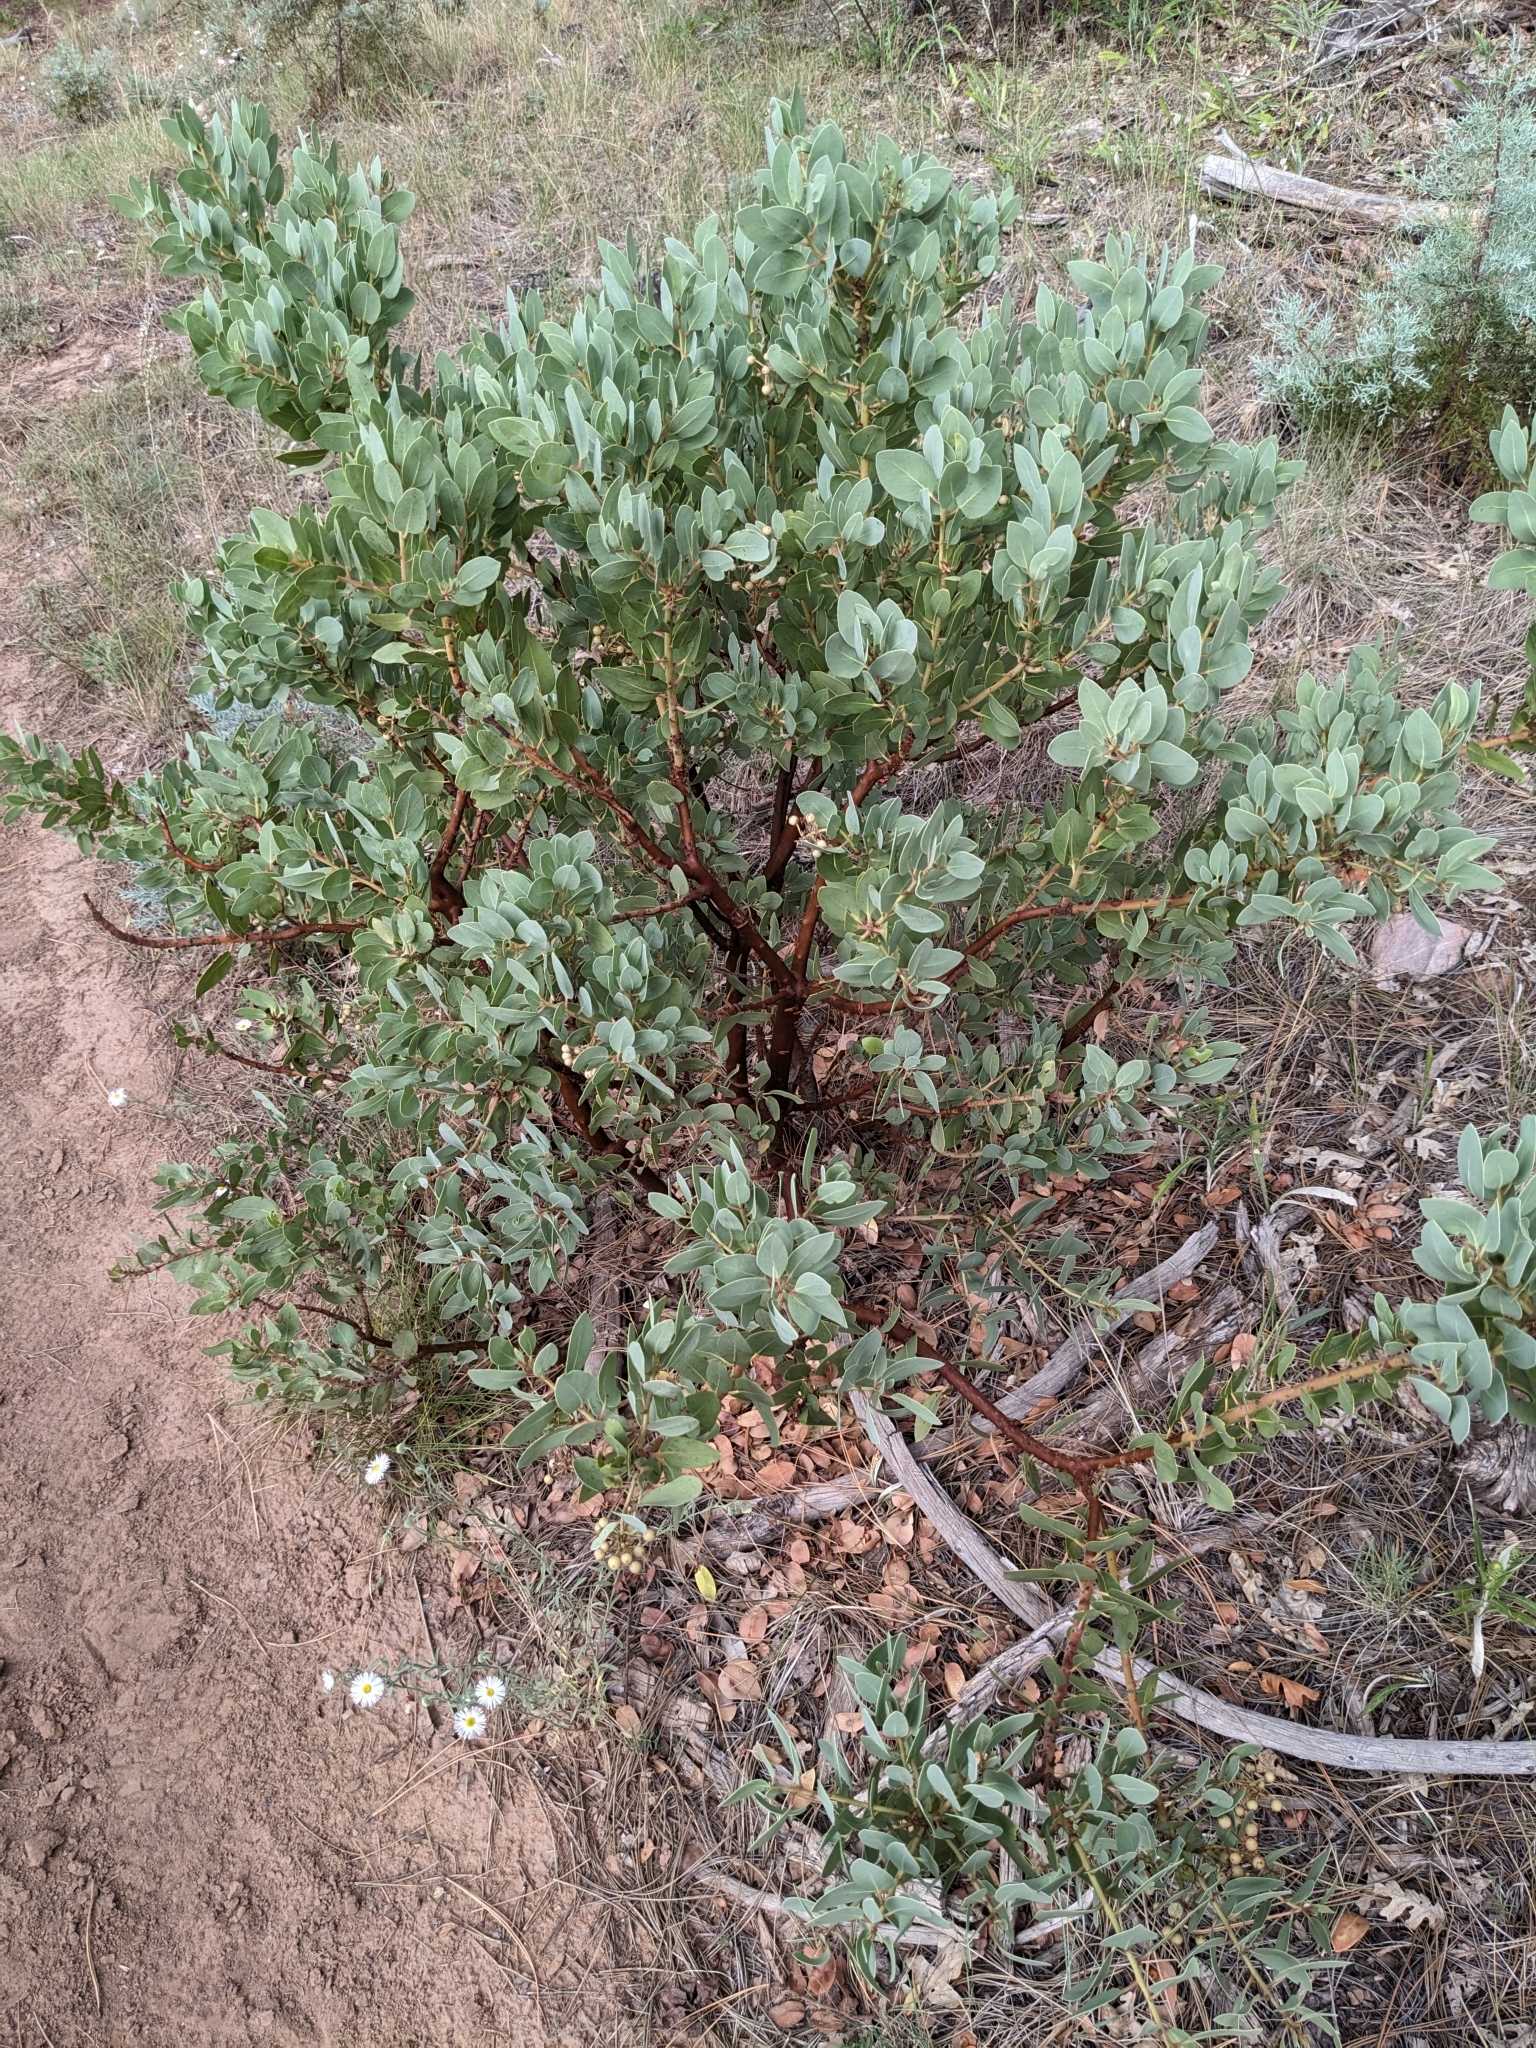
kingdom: Plantae
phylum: Tracheophyta
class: Magnoliopsida
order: Ericales
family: Ericaceae
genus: Arctostaphylos
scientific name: Arctostaphylos pringlei
